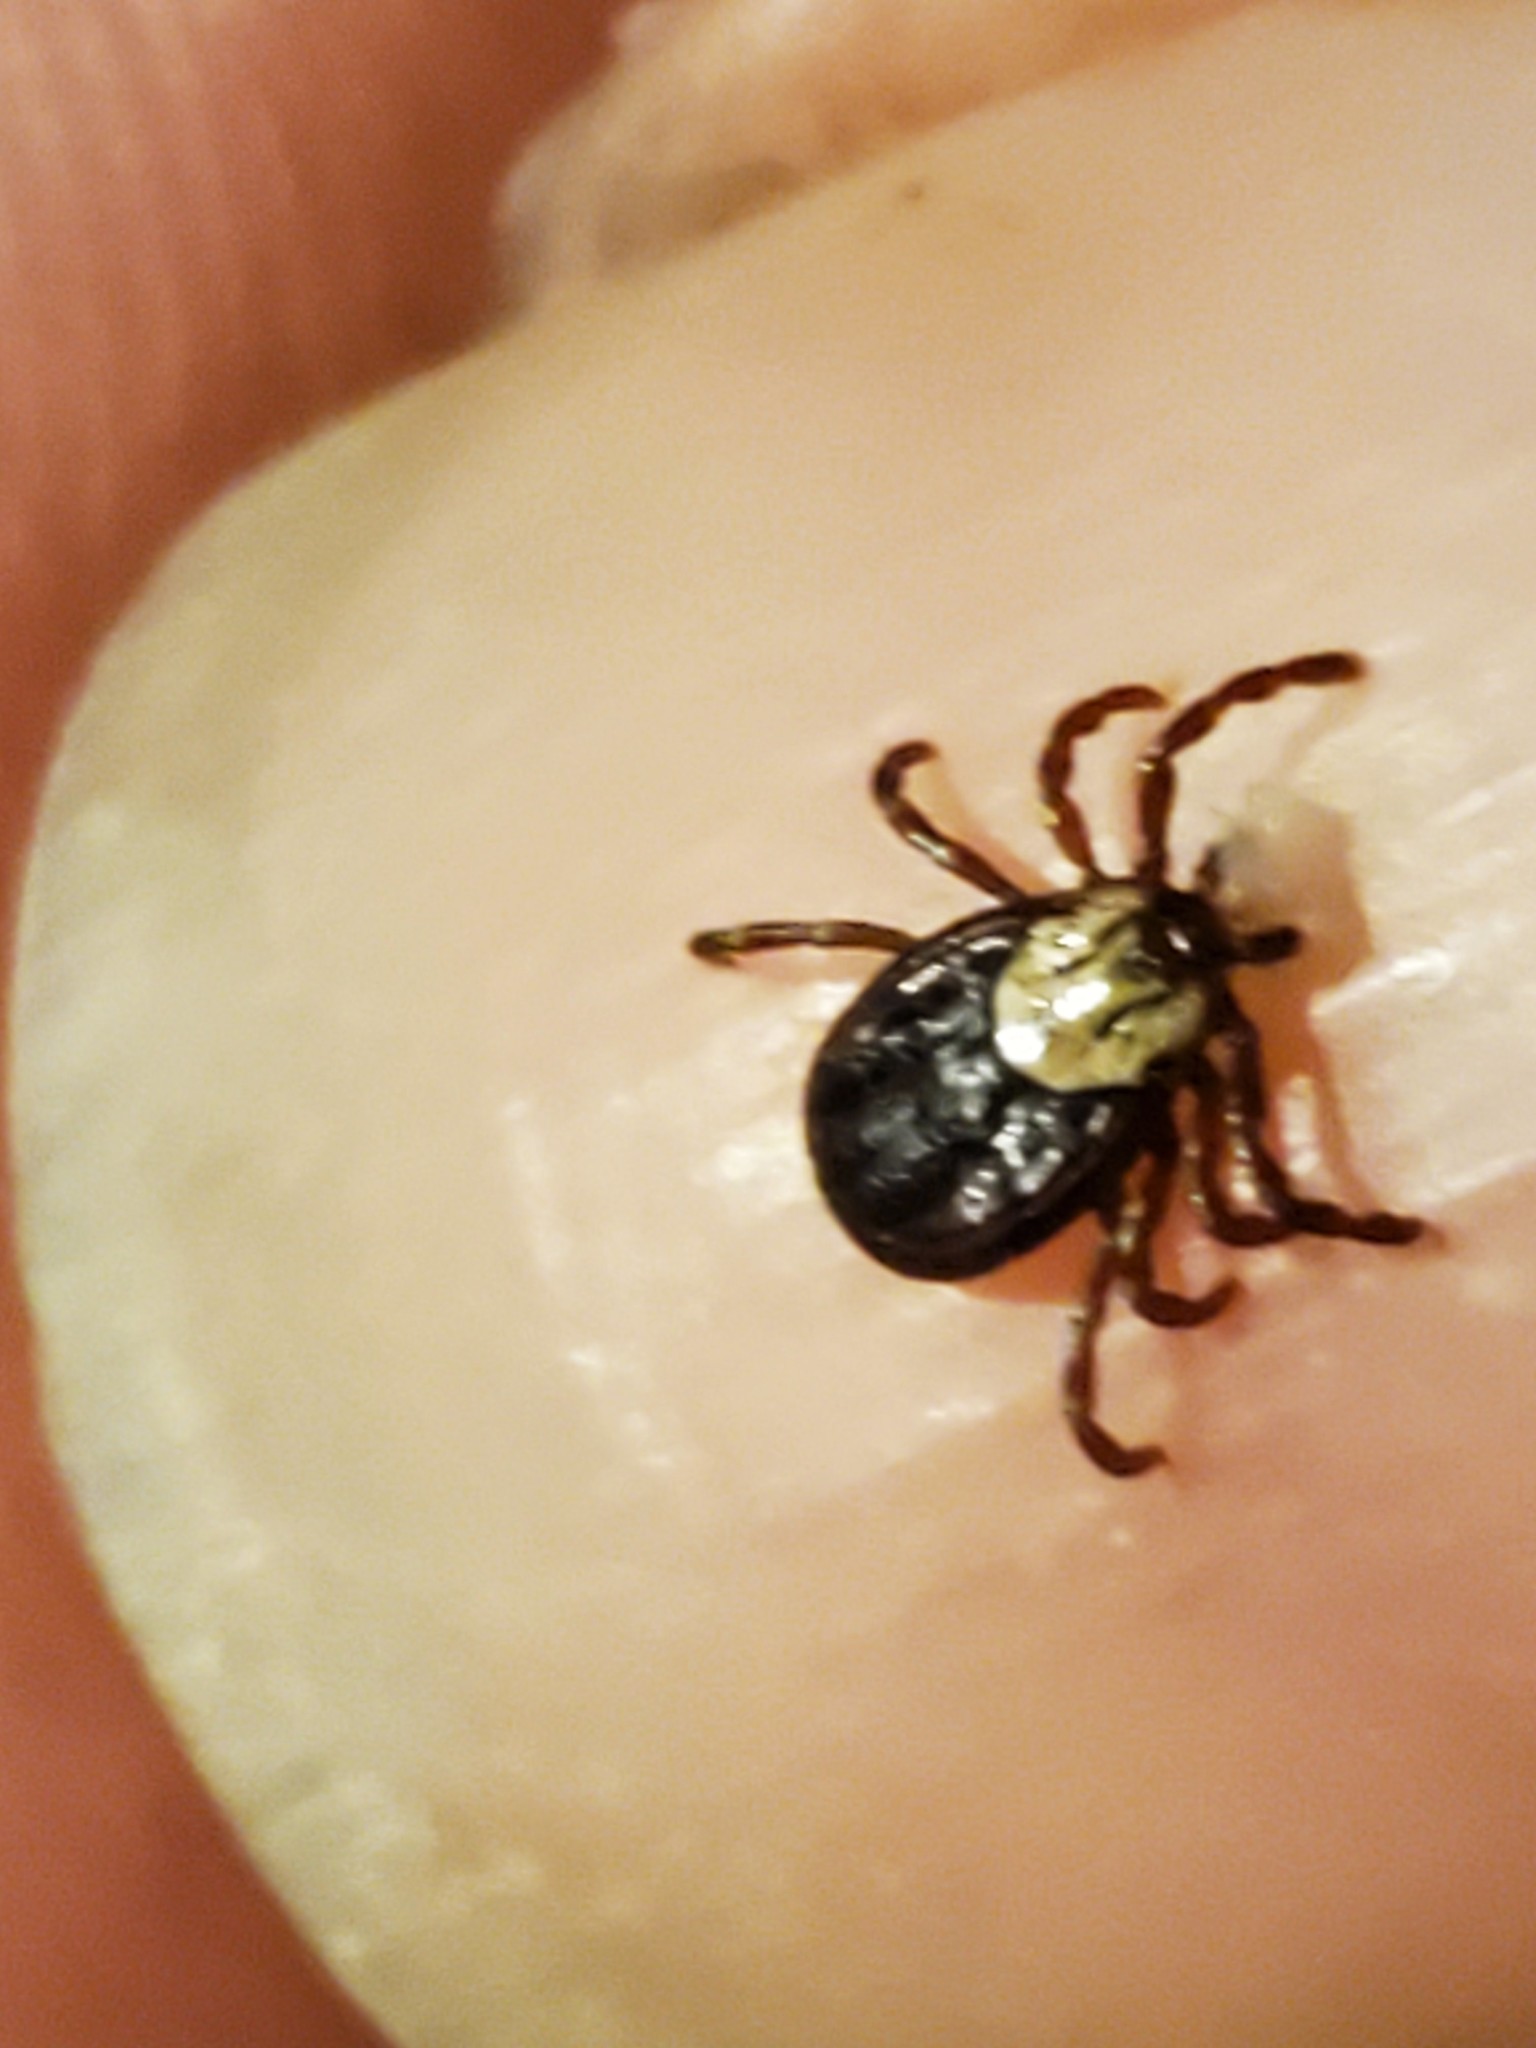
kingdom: Animalia
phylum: Arthropoda
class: Arachnida
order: Ixodida
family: Ixodidae
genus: Dermacentor
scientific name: Dermacentor variabilis
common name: American dog tick
